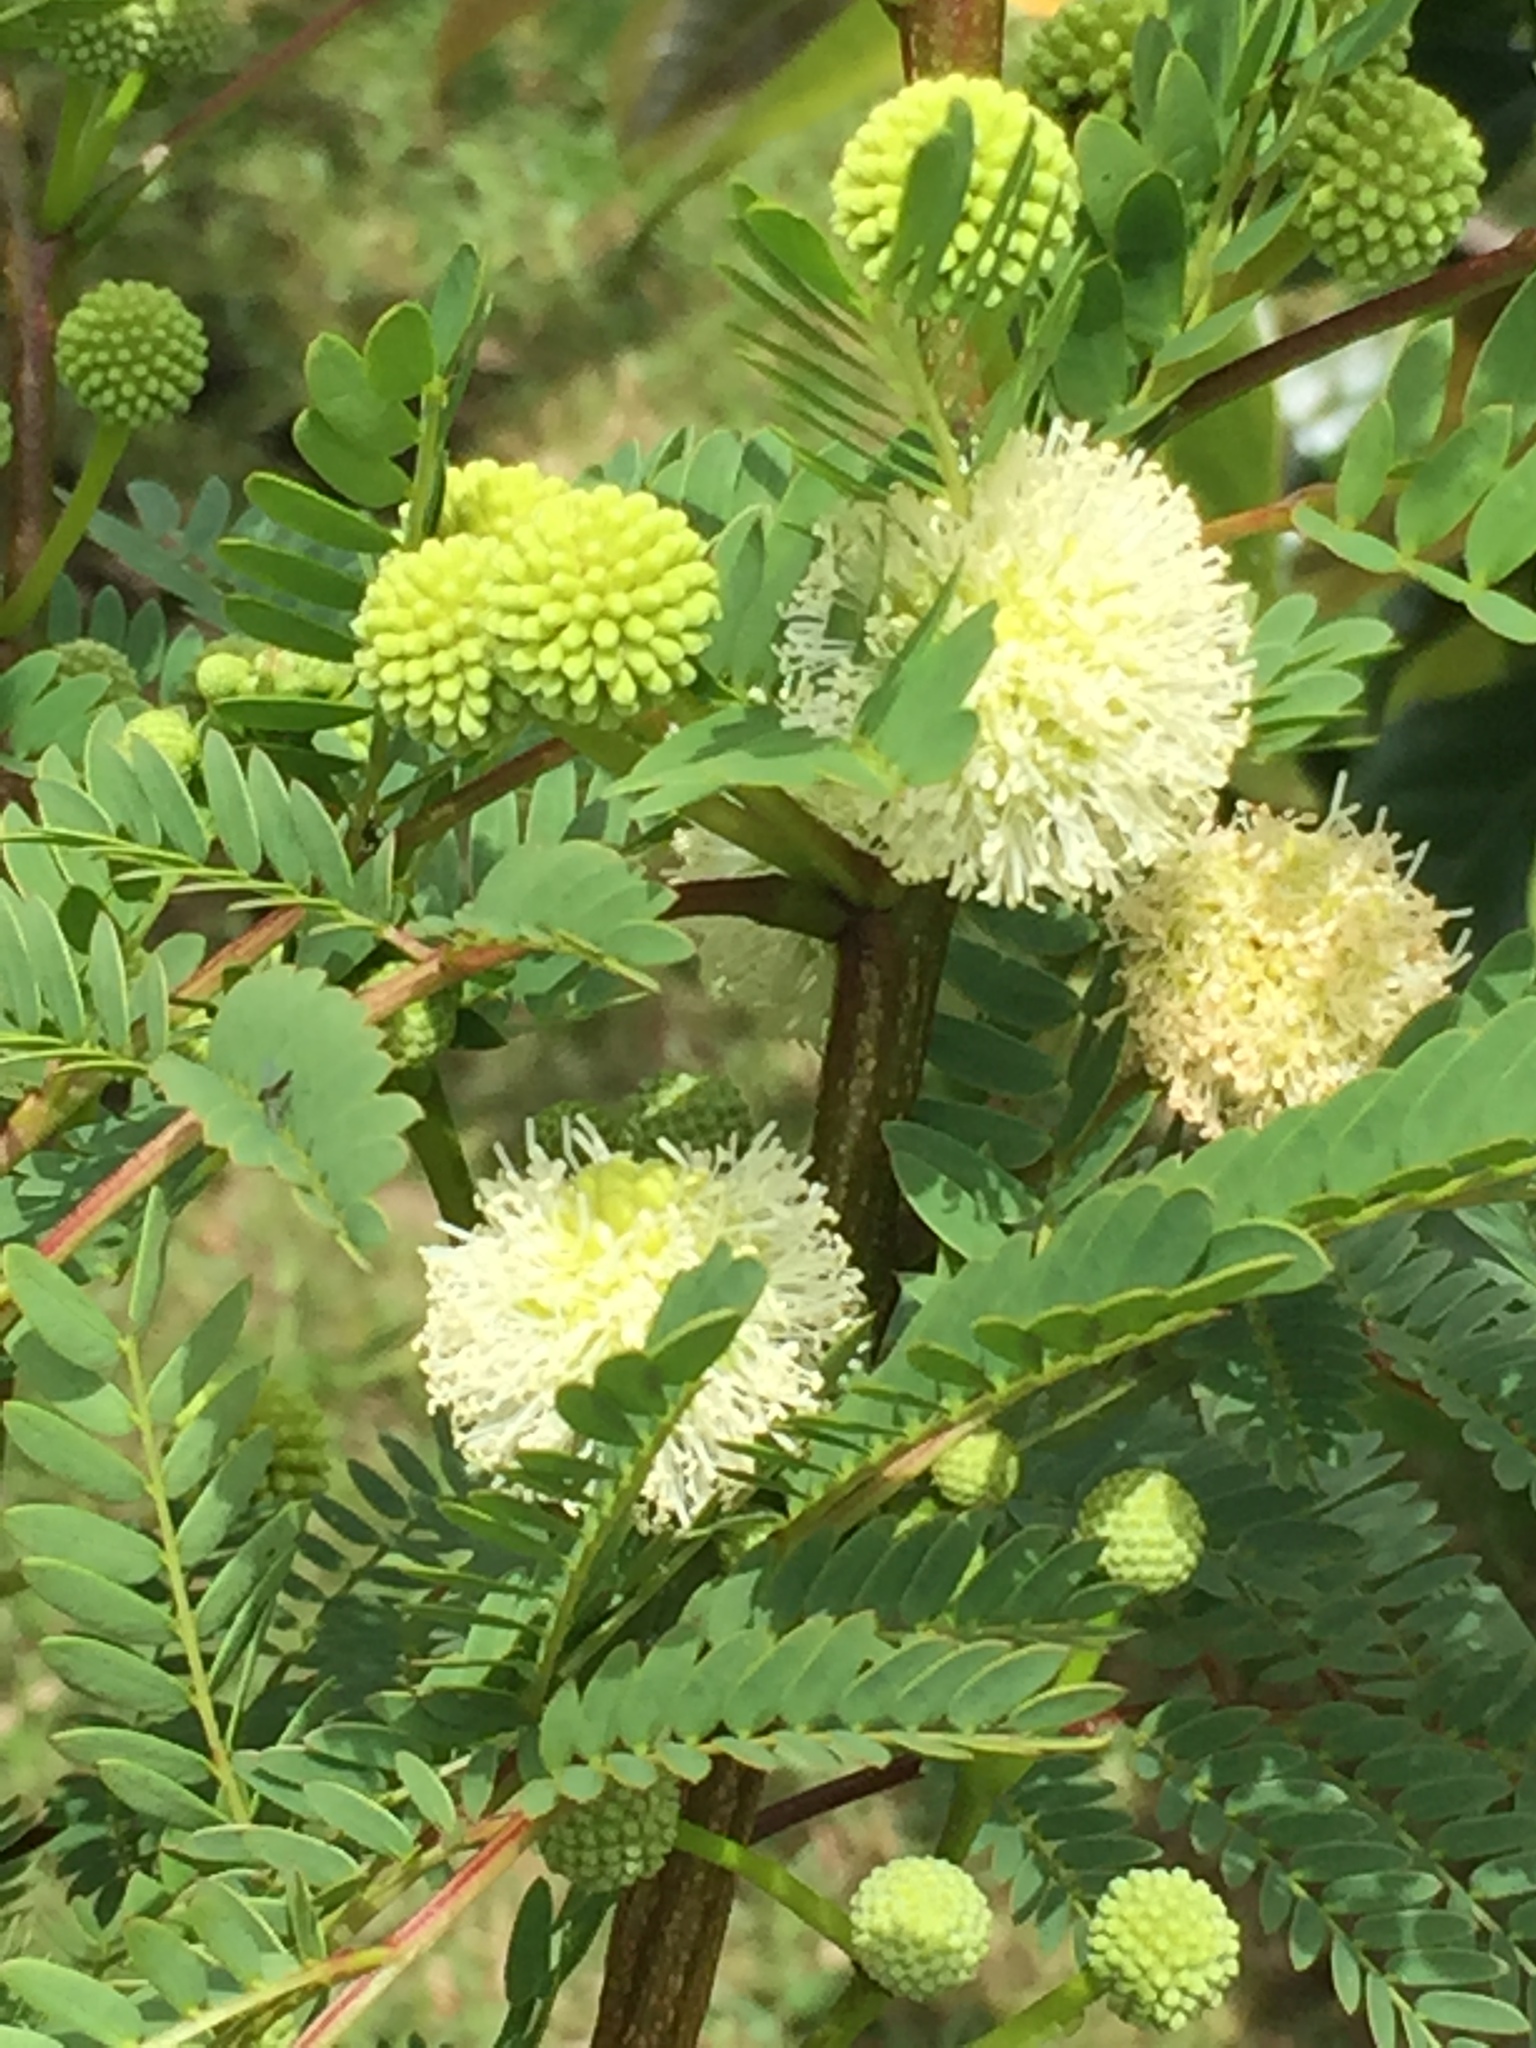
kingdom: Plantae
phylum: Tracheophyta
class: Magnoliopsida
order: Fabales
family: Fabaceae
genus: Leucaena
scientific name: Leucaena leucocephala
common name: White leadtree
